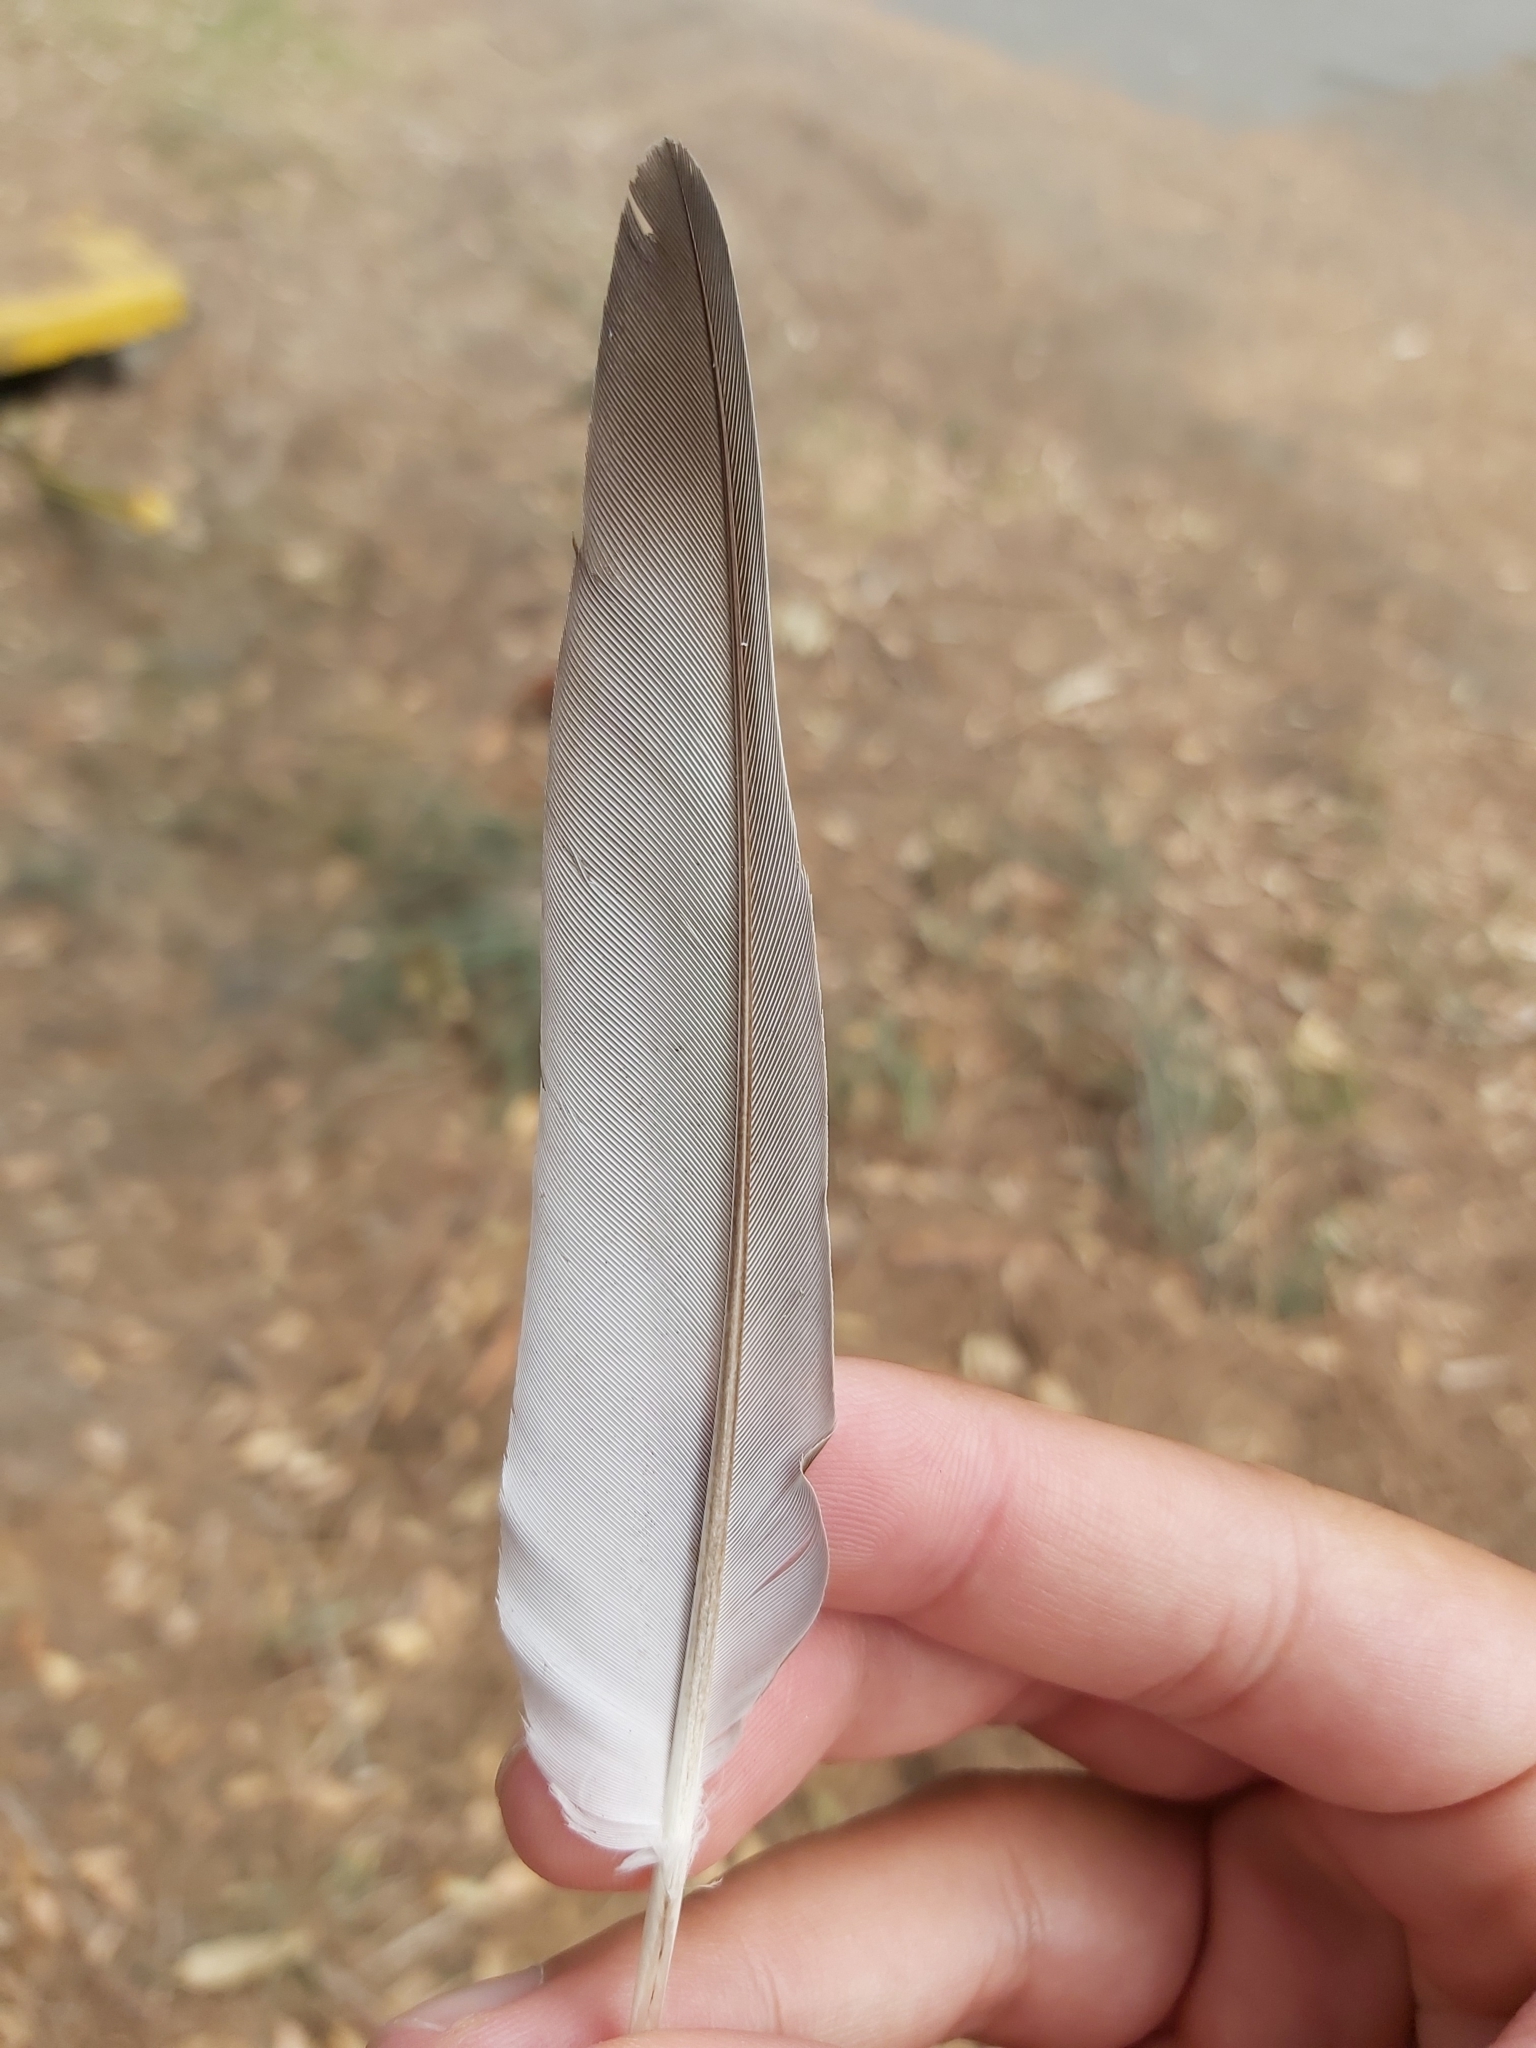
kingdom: Animalia
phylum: Chordata
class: Aves
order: Columbiformes
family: Columbidae
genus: Ocyphaps
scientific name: Ocyphaps lophotes
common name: Crested pigeon
